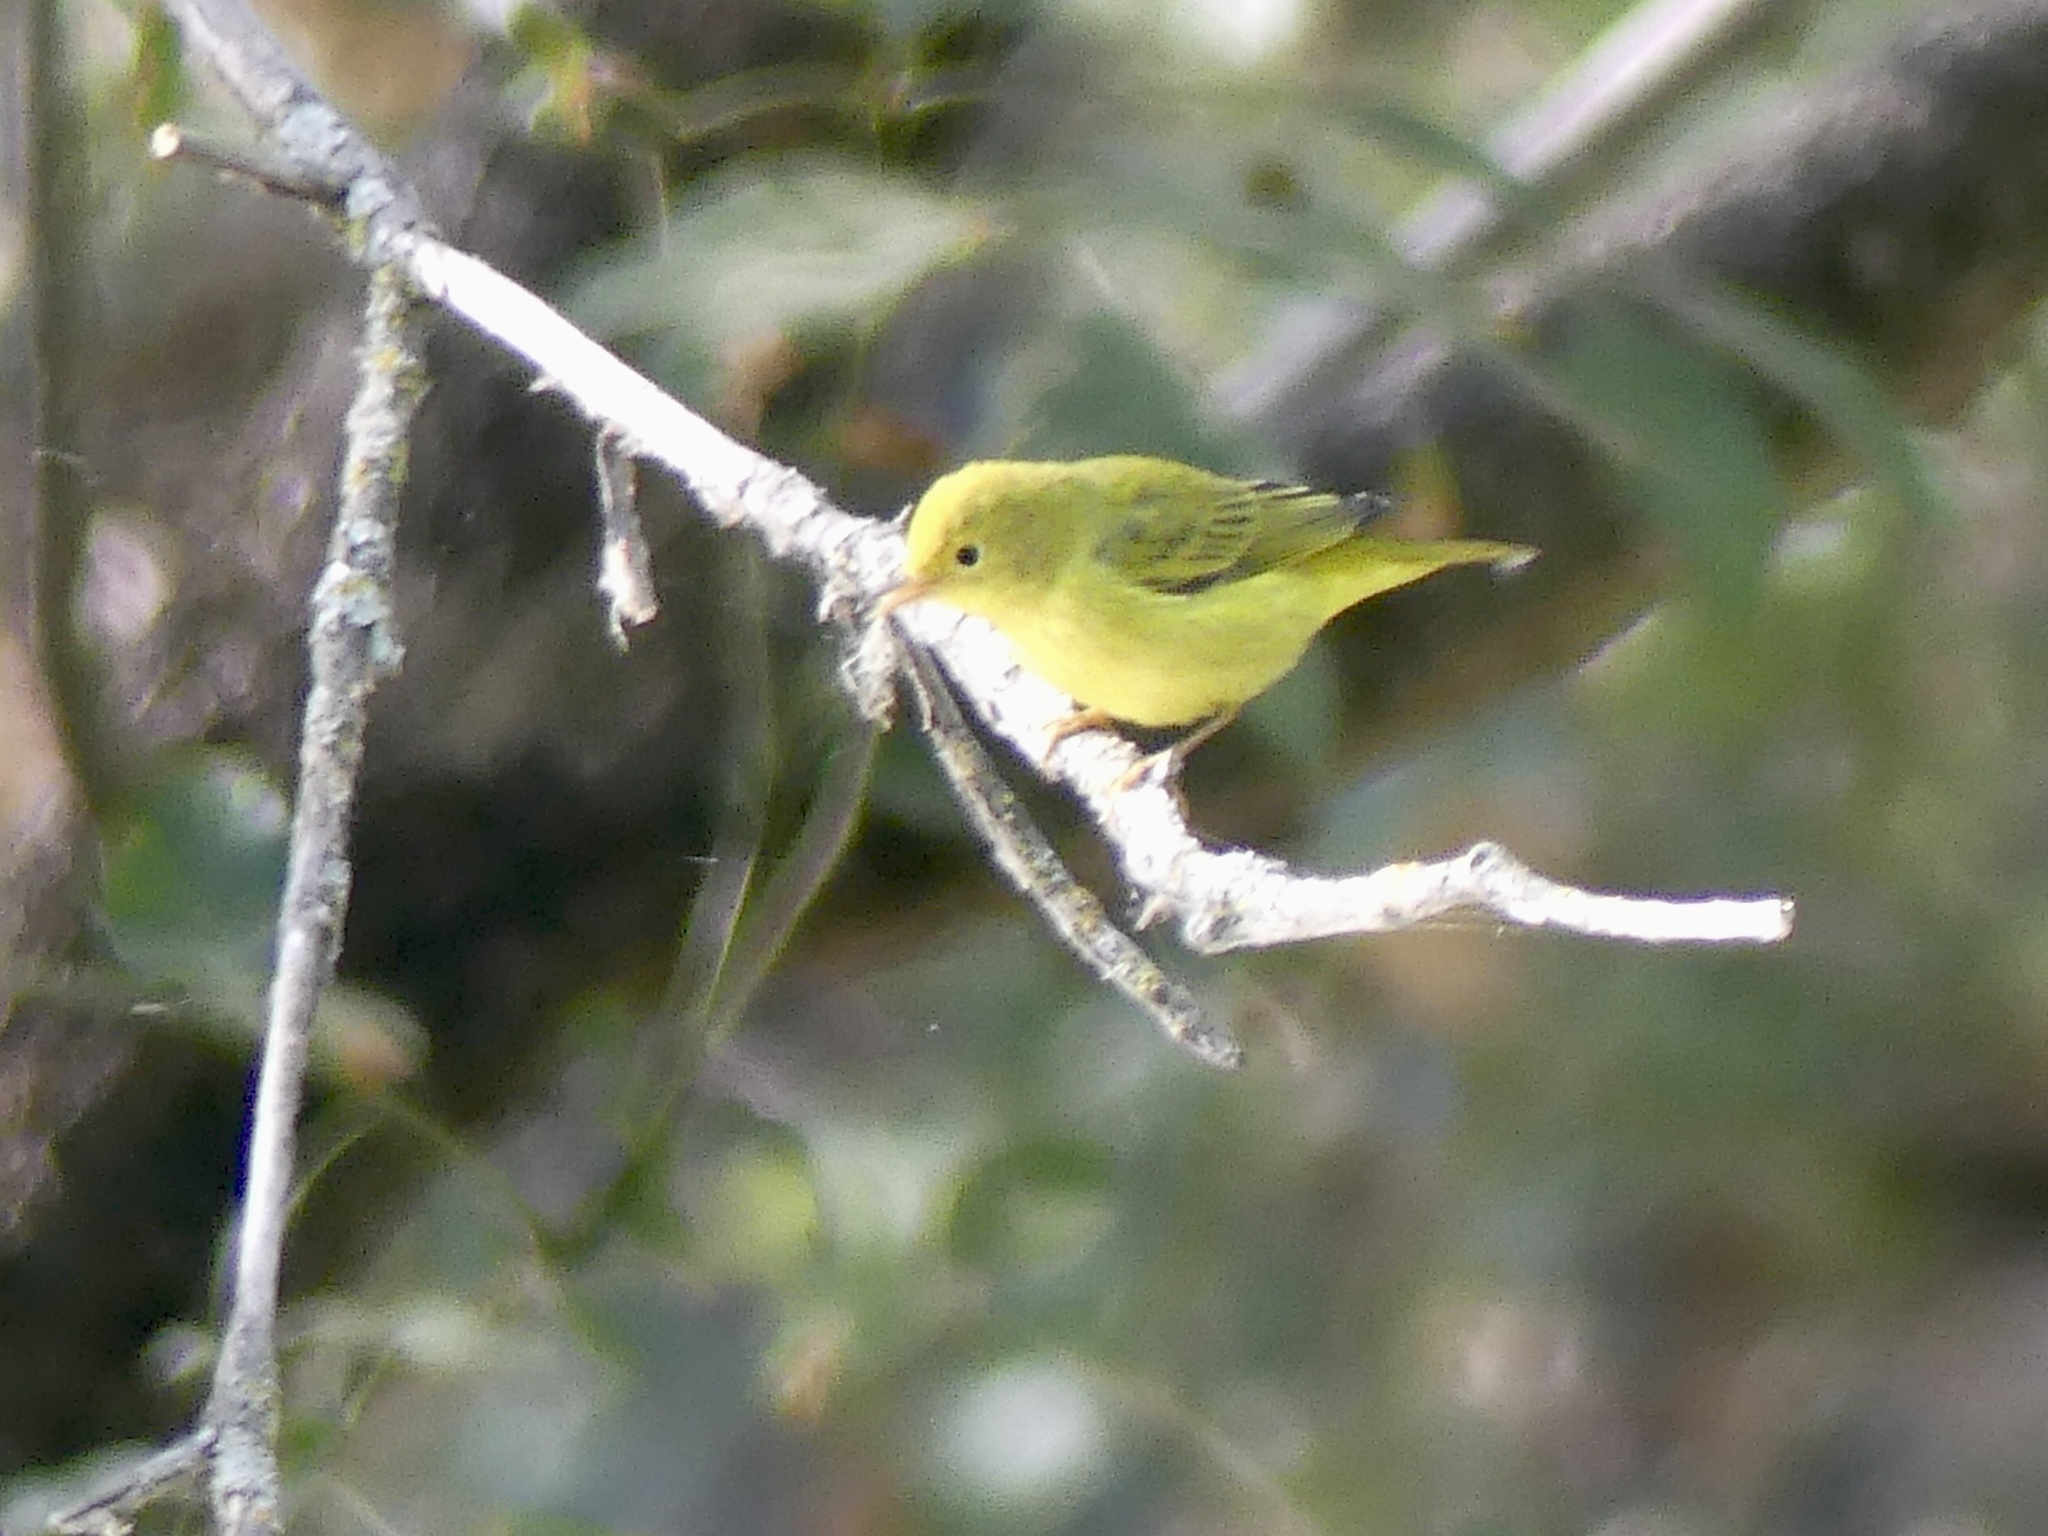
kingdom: Animalia
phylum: Chordata
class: Aves
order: Passeriformes
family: Parulidae
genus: Setophaga
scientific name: Setophaga petechia
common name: Yellow warbler
